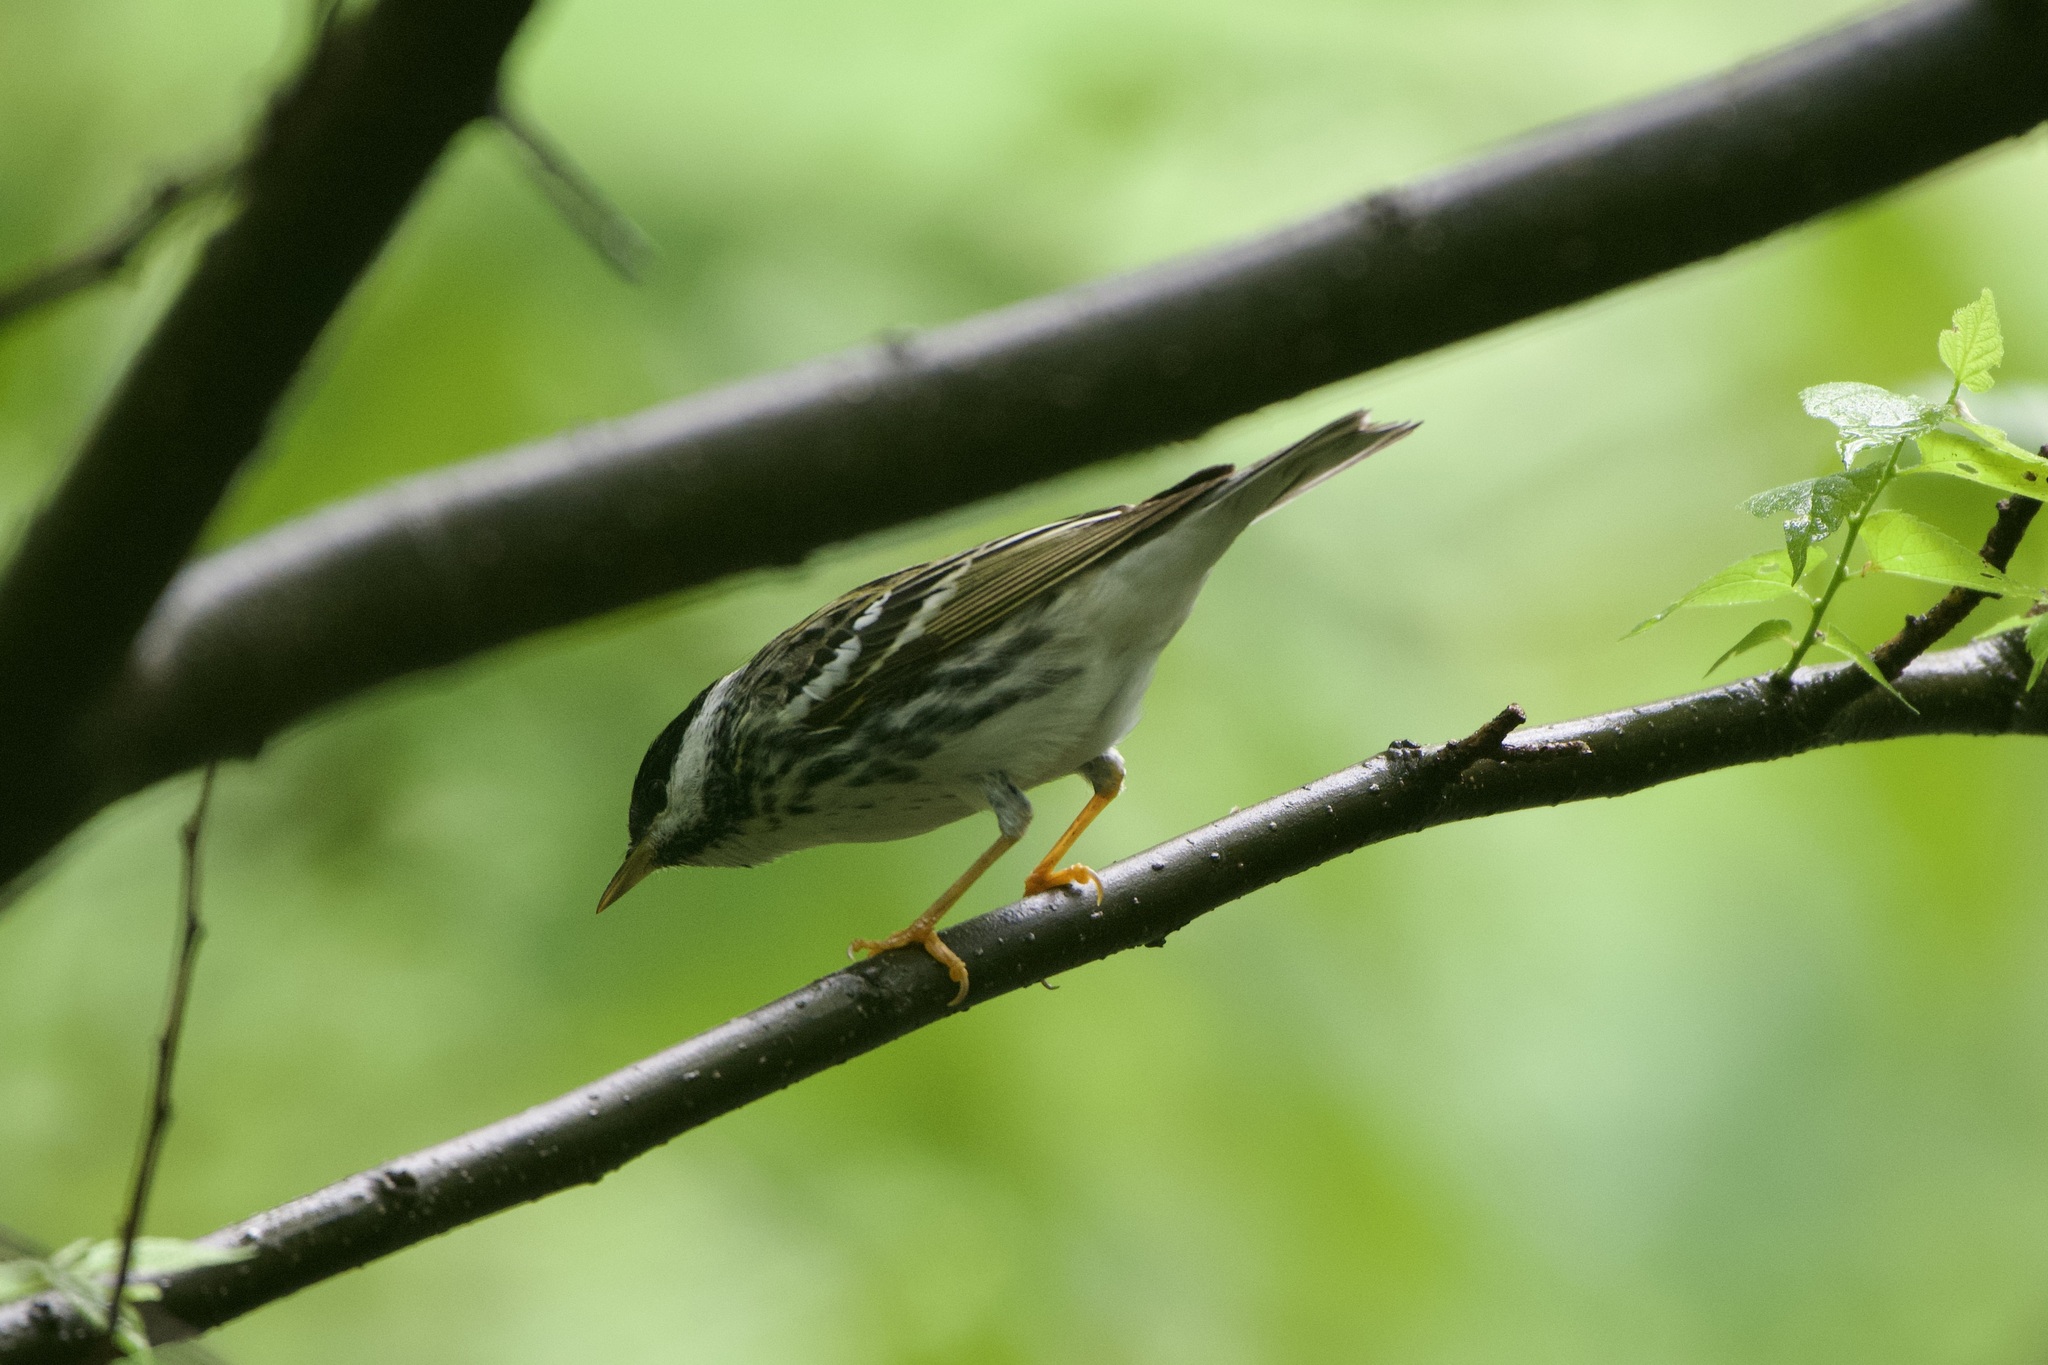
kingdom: Animalia
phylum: Chordata
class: Aves
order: Passeriformes
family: Parulidae
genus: Setophaga
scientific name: Setophaga striata
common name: Blackpoll warbler
